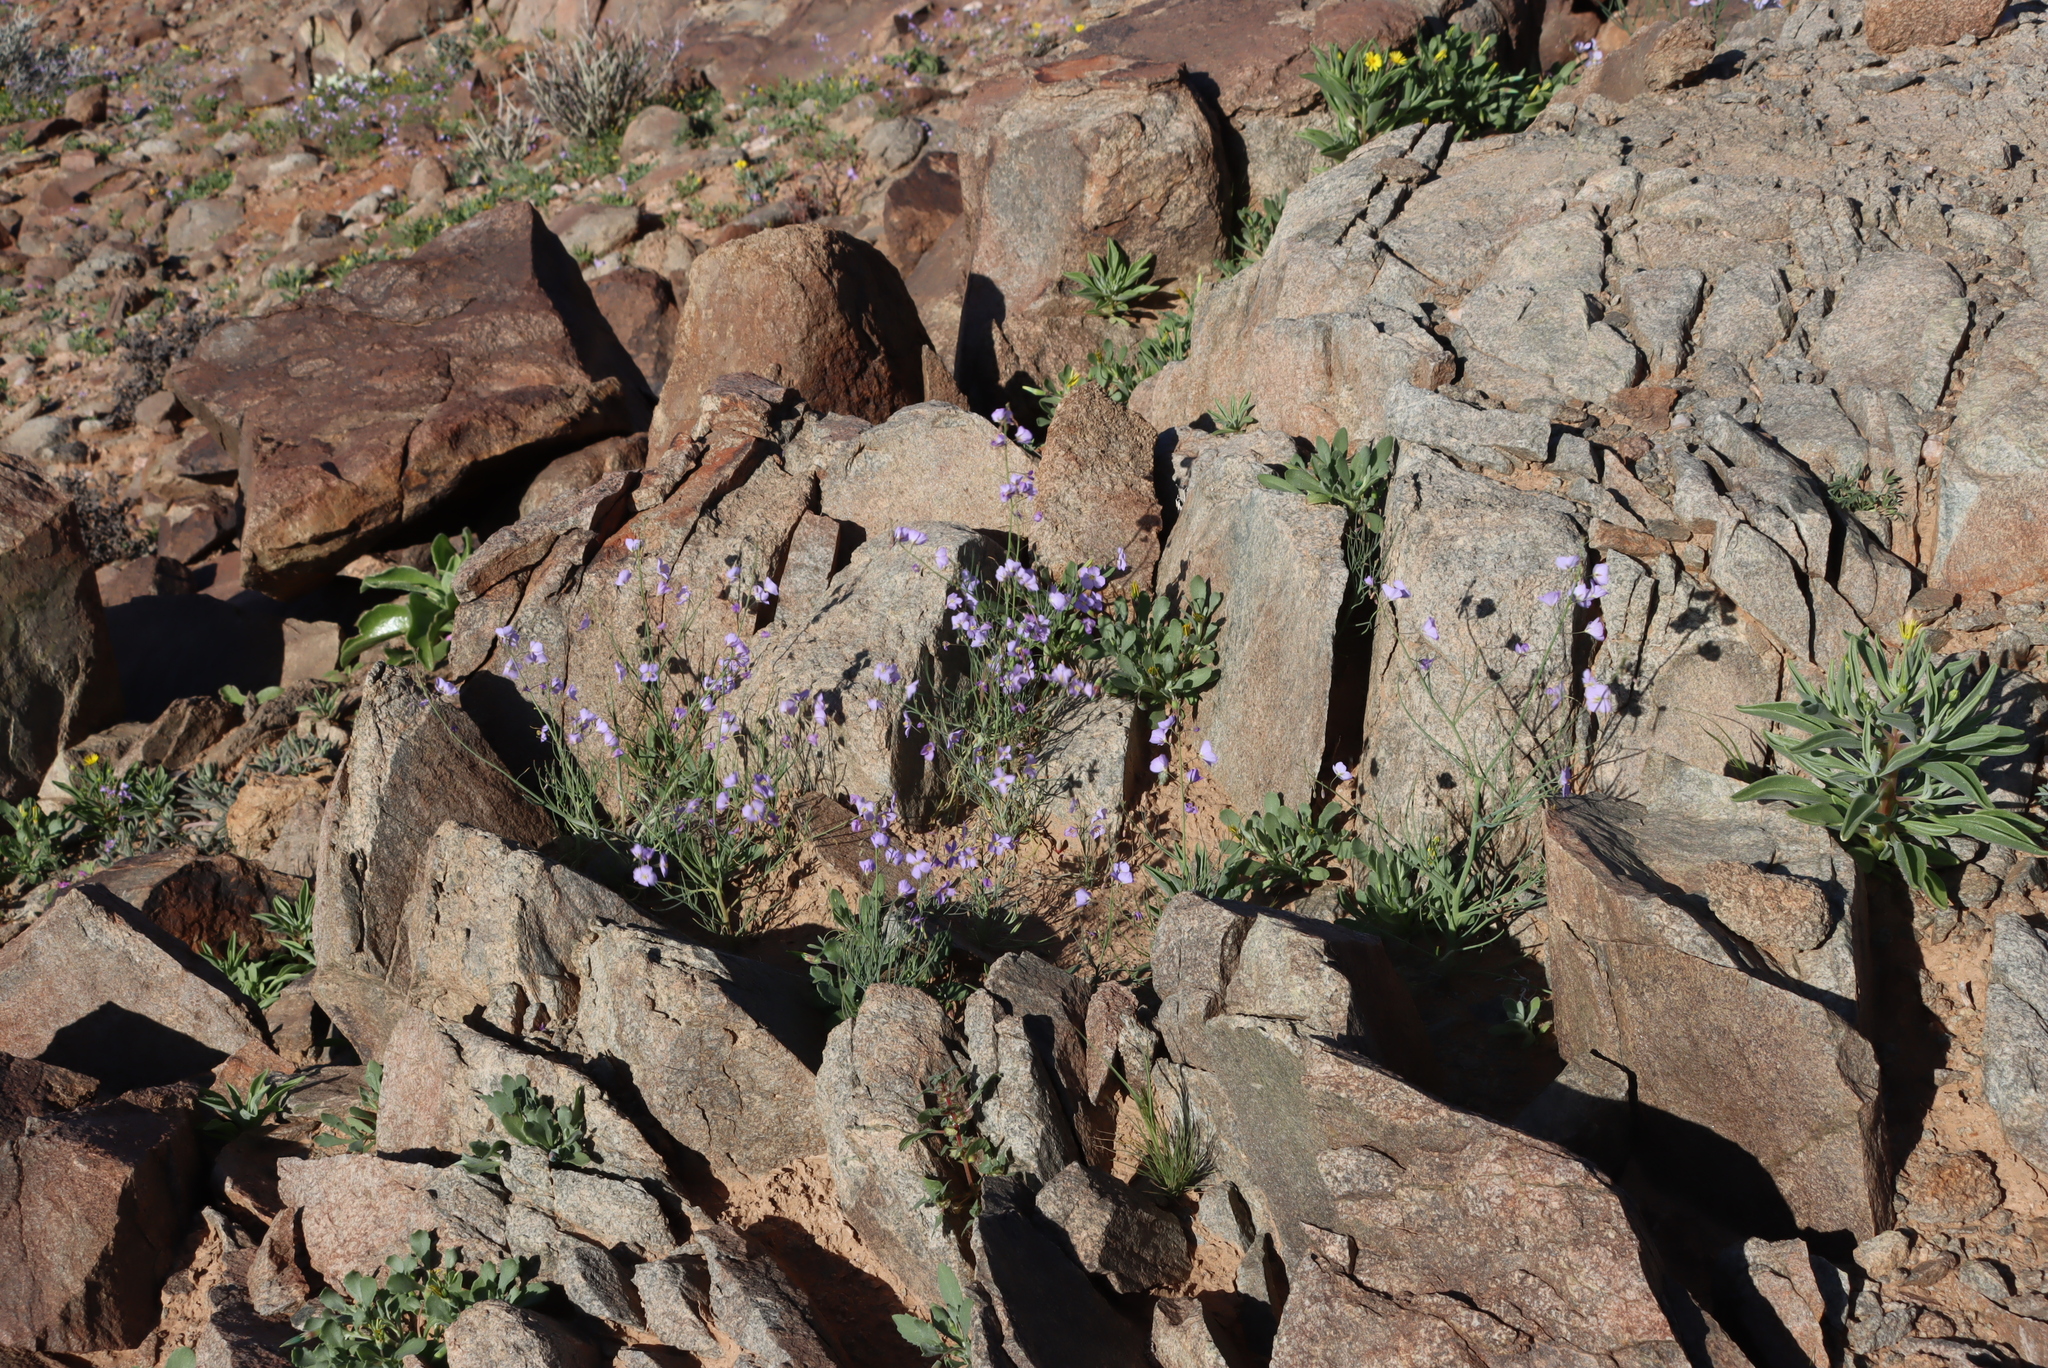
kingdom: Plantae
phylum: Tracheophyta
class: Magnoliopsida
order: Brassicales
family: Brassicaceae
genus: Heliophila
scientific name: Heliophila trifurca
